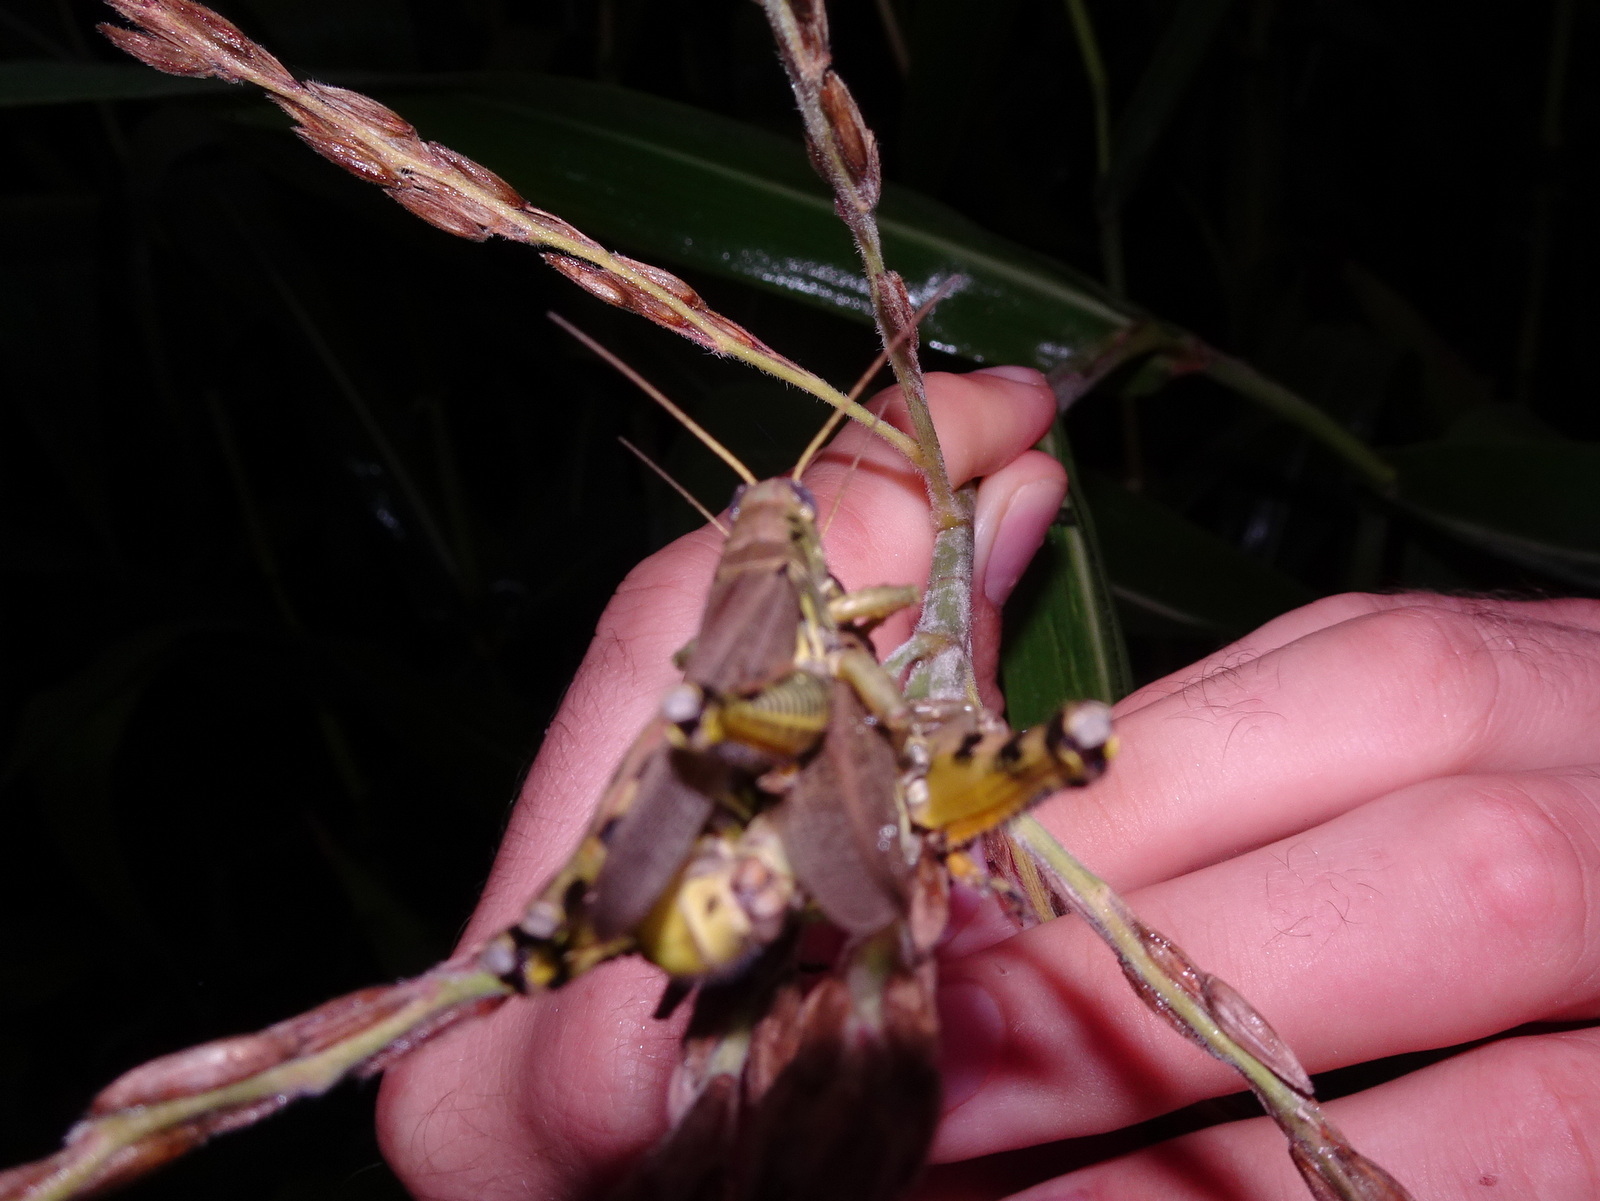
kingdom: Animalia
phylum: Arthropoda
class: Insecta
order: Orthoptera
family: Acrididae
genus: Melanoplus
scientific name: Melanoplus differentialis
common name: Differential grasshopper
